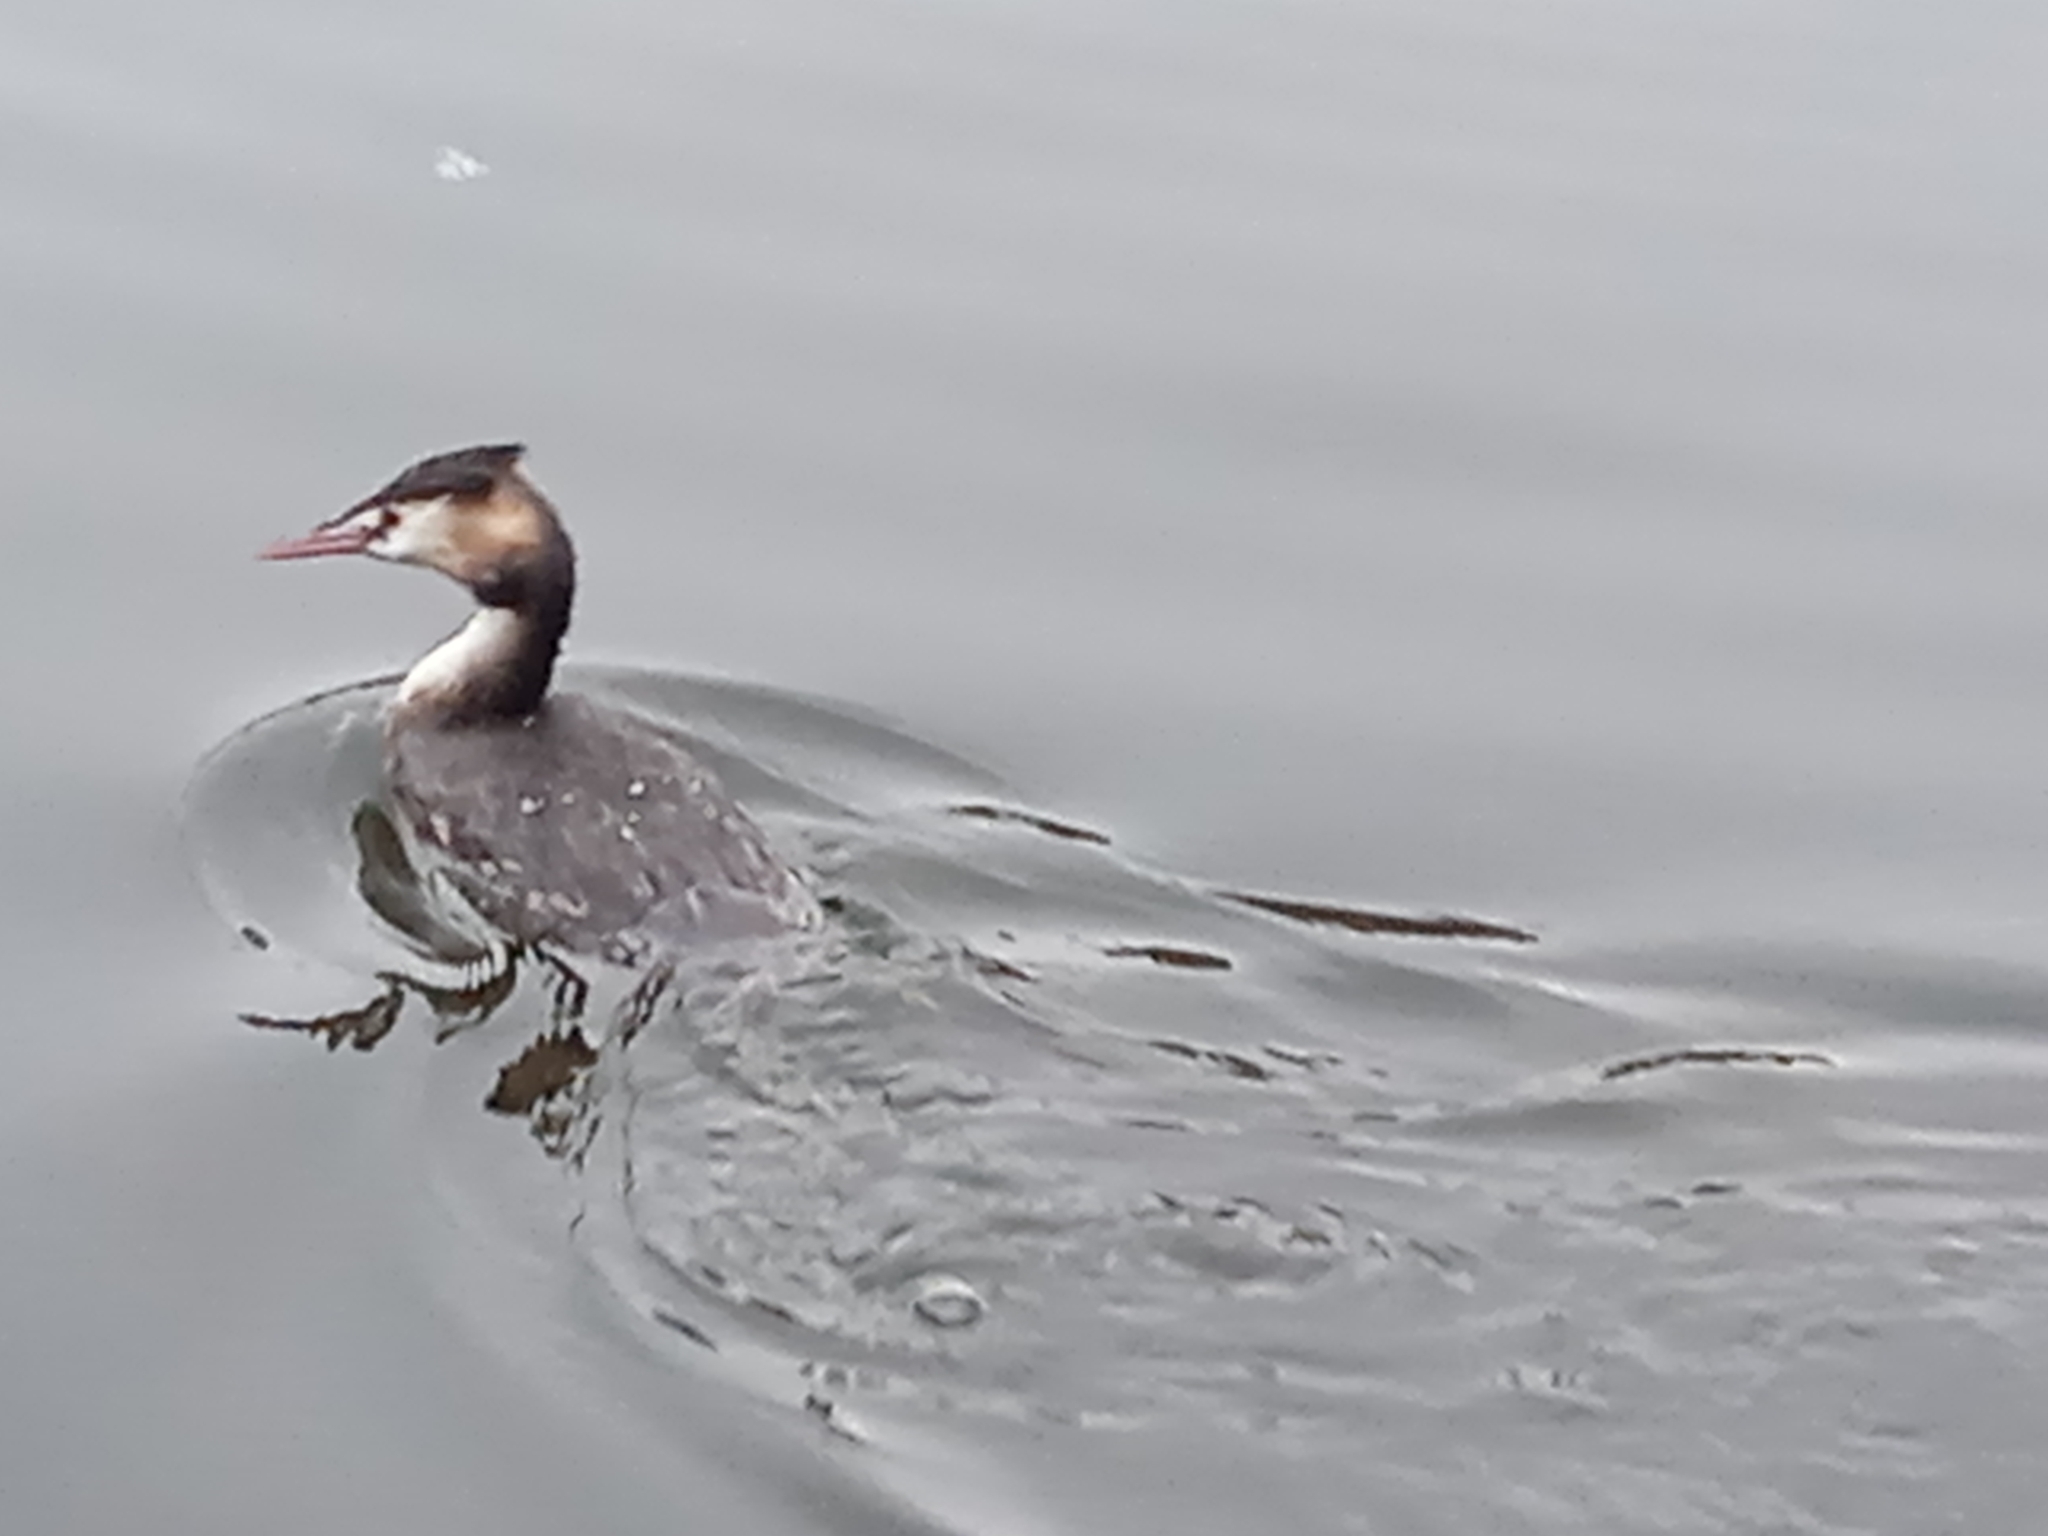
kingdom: Animalia
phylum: Chordata
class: Aves
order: Podicipediformes
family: Podicipedidae
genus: Podiceps
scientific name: Podiceps cristatus
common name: Great crested grebe
